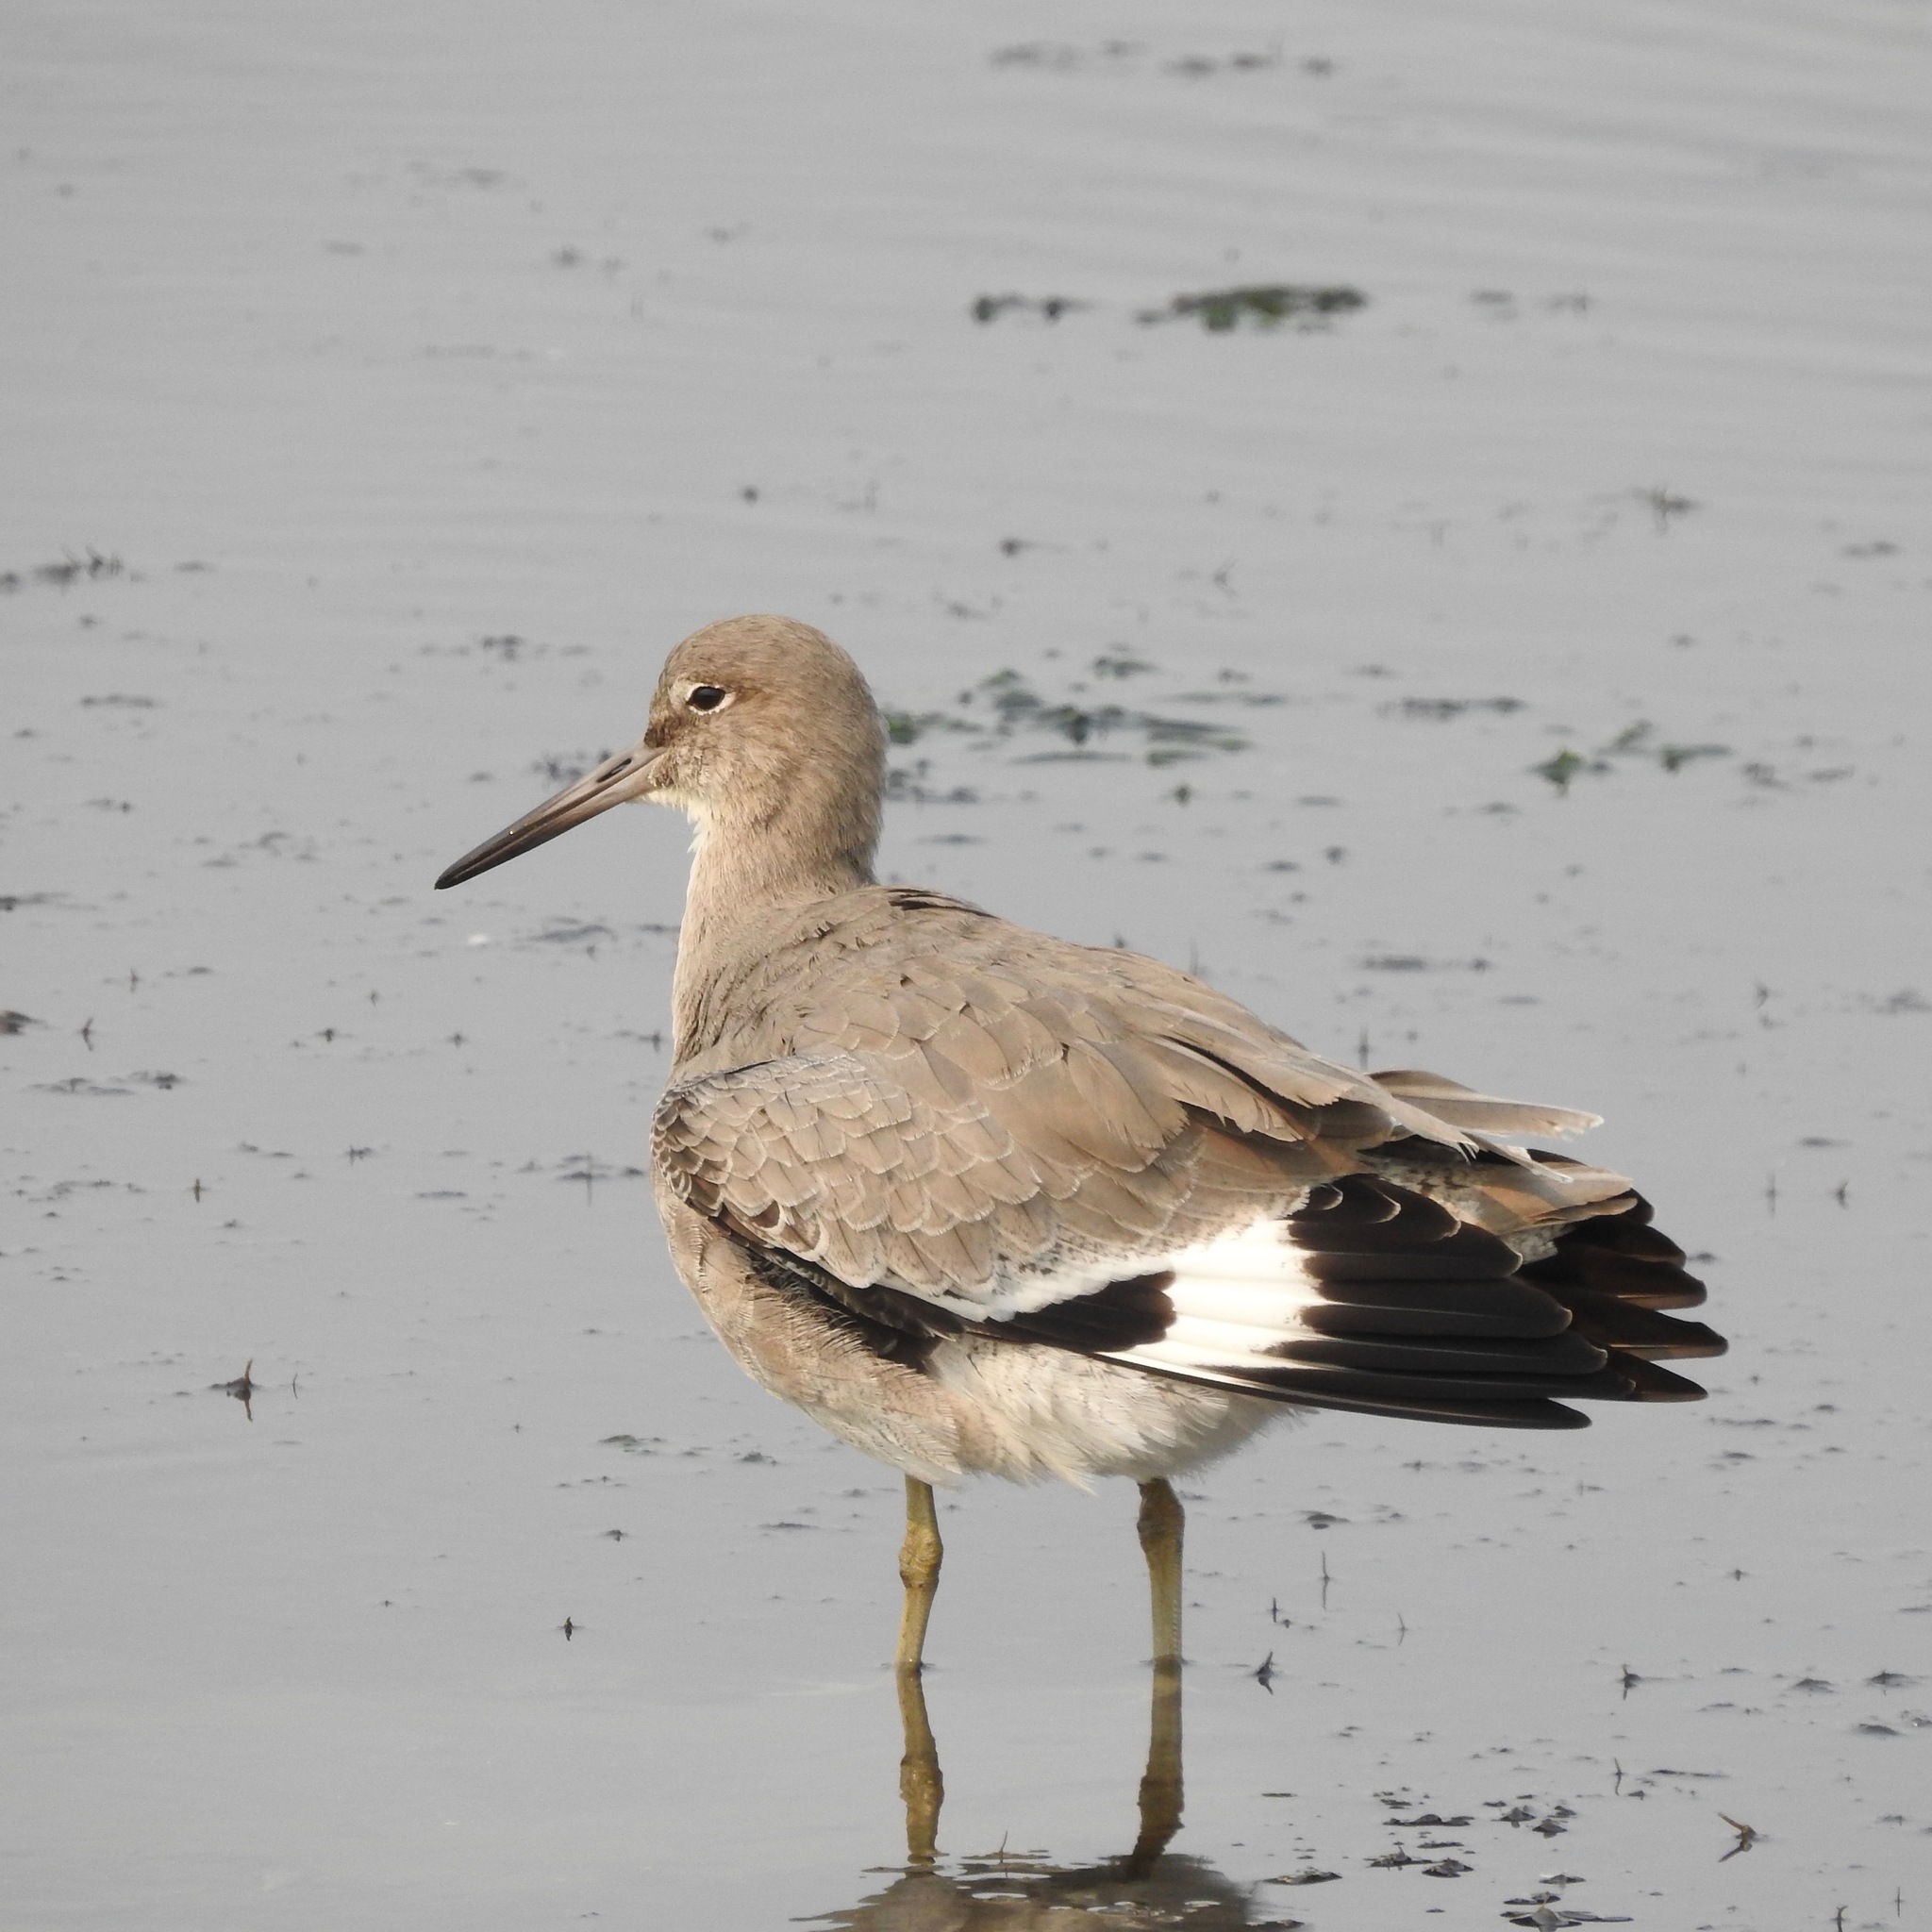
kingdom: Animalia
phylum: Chordata
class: Aves
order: Charadriiformes
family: Scolopacidae
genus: Tringa
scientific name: Tringa semipalmata
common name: Willet
